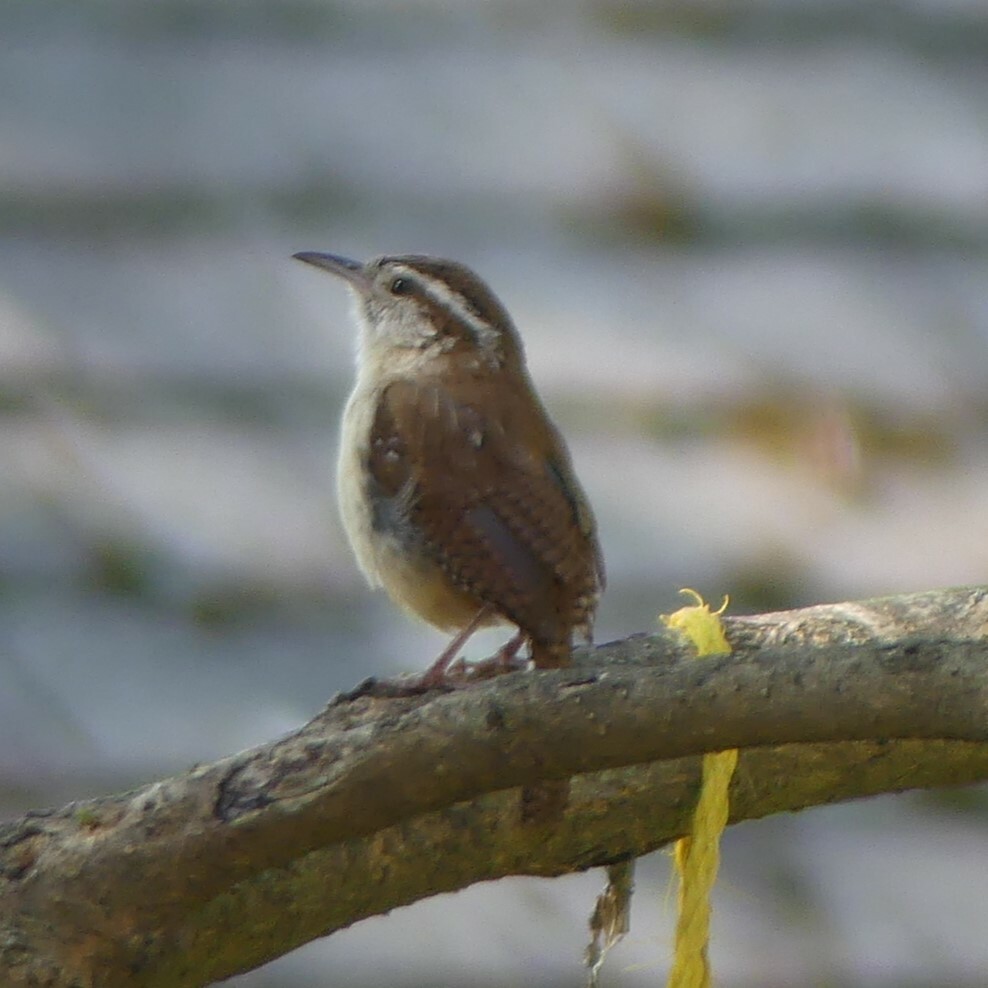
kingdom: Animalia
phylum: Chordata
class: Aves
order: Passeriformes
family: Troglodytidae
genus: Thryothorus
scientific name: Thryothorus ludovicianus
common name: Carolina wren
